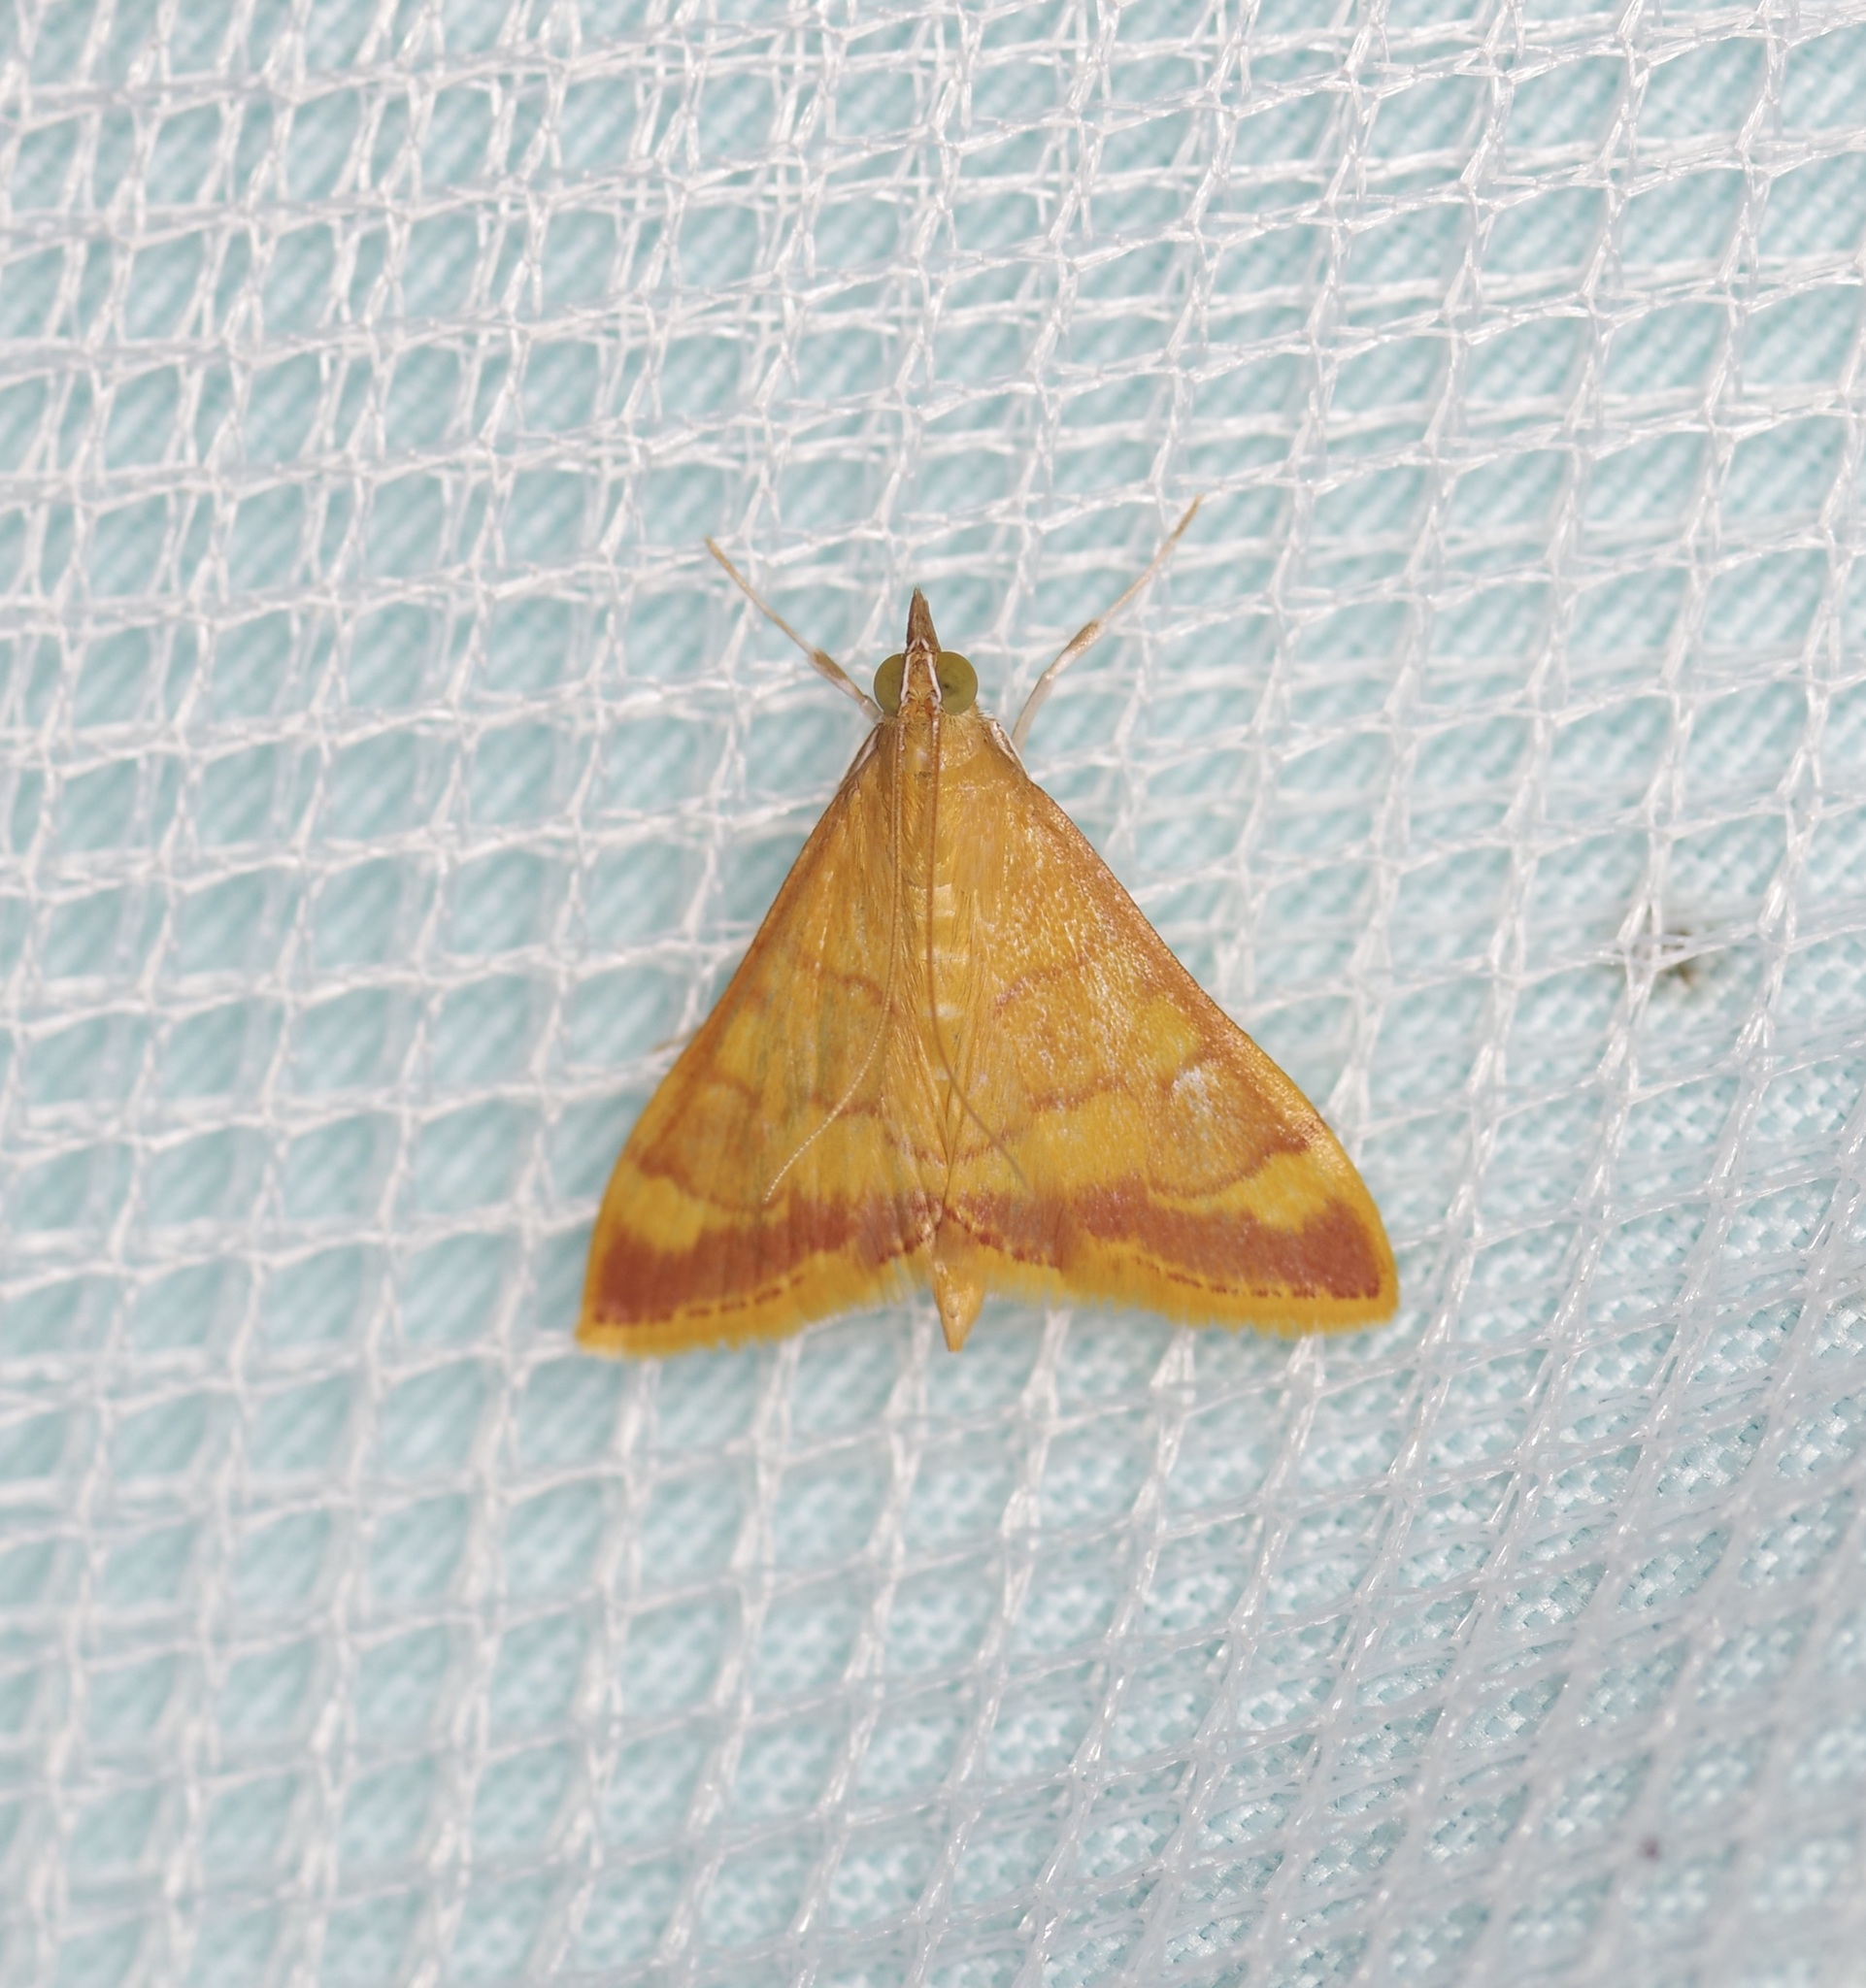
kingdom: Animalia
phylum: Arthropoda
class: Insecta
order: Lepidoptera
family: Crambidae
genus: Pyrausta
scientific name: Pyrausta pseudonythesalis
